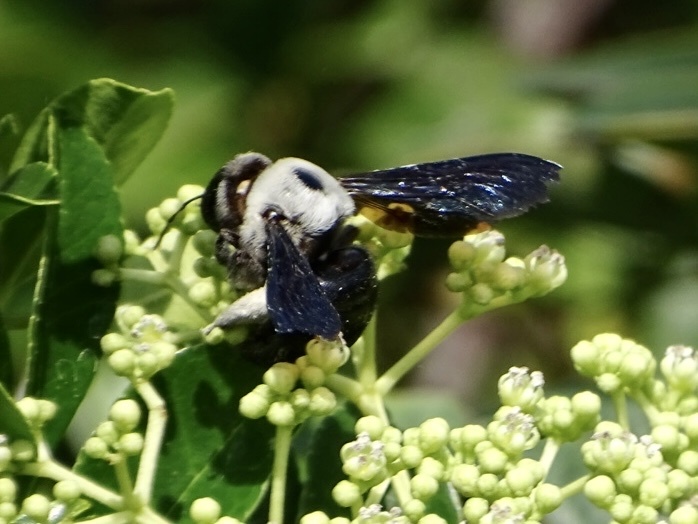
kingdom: Animalia
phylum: Arthropoda
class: Insecta
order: Hymenoptera
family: Apidae
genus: Xylocopa
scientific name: Xylocopa phalothorax
